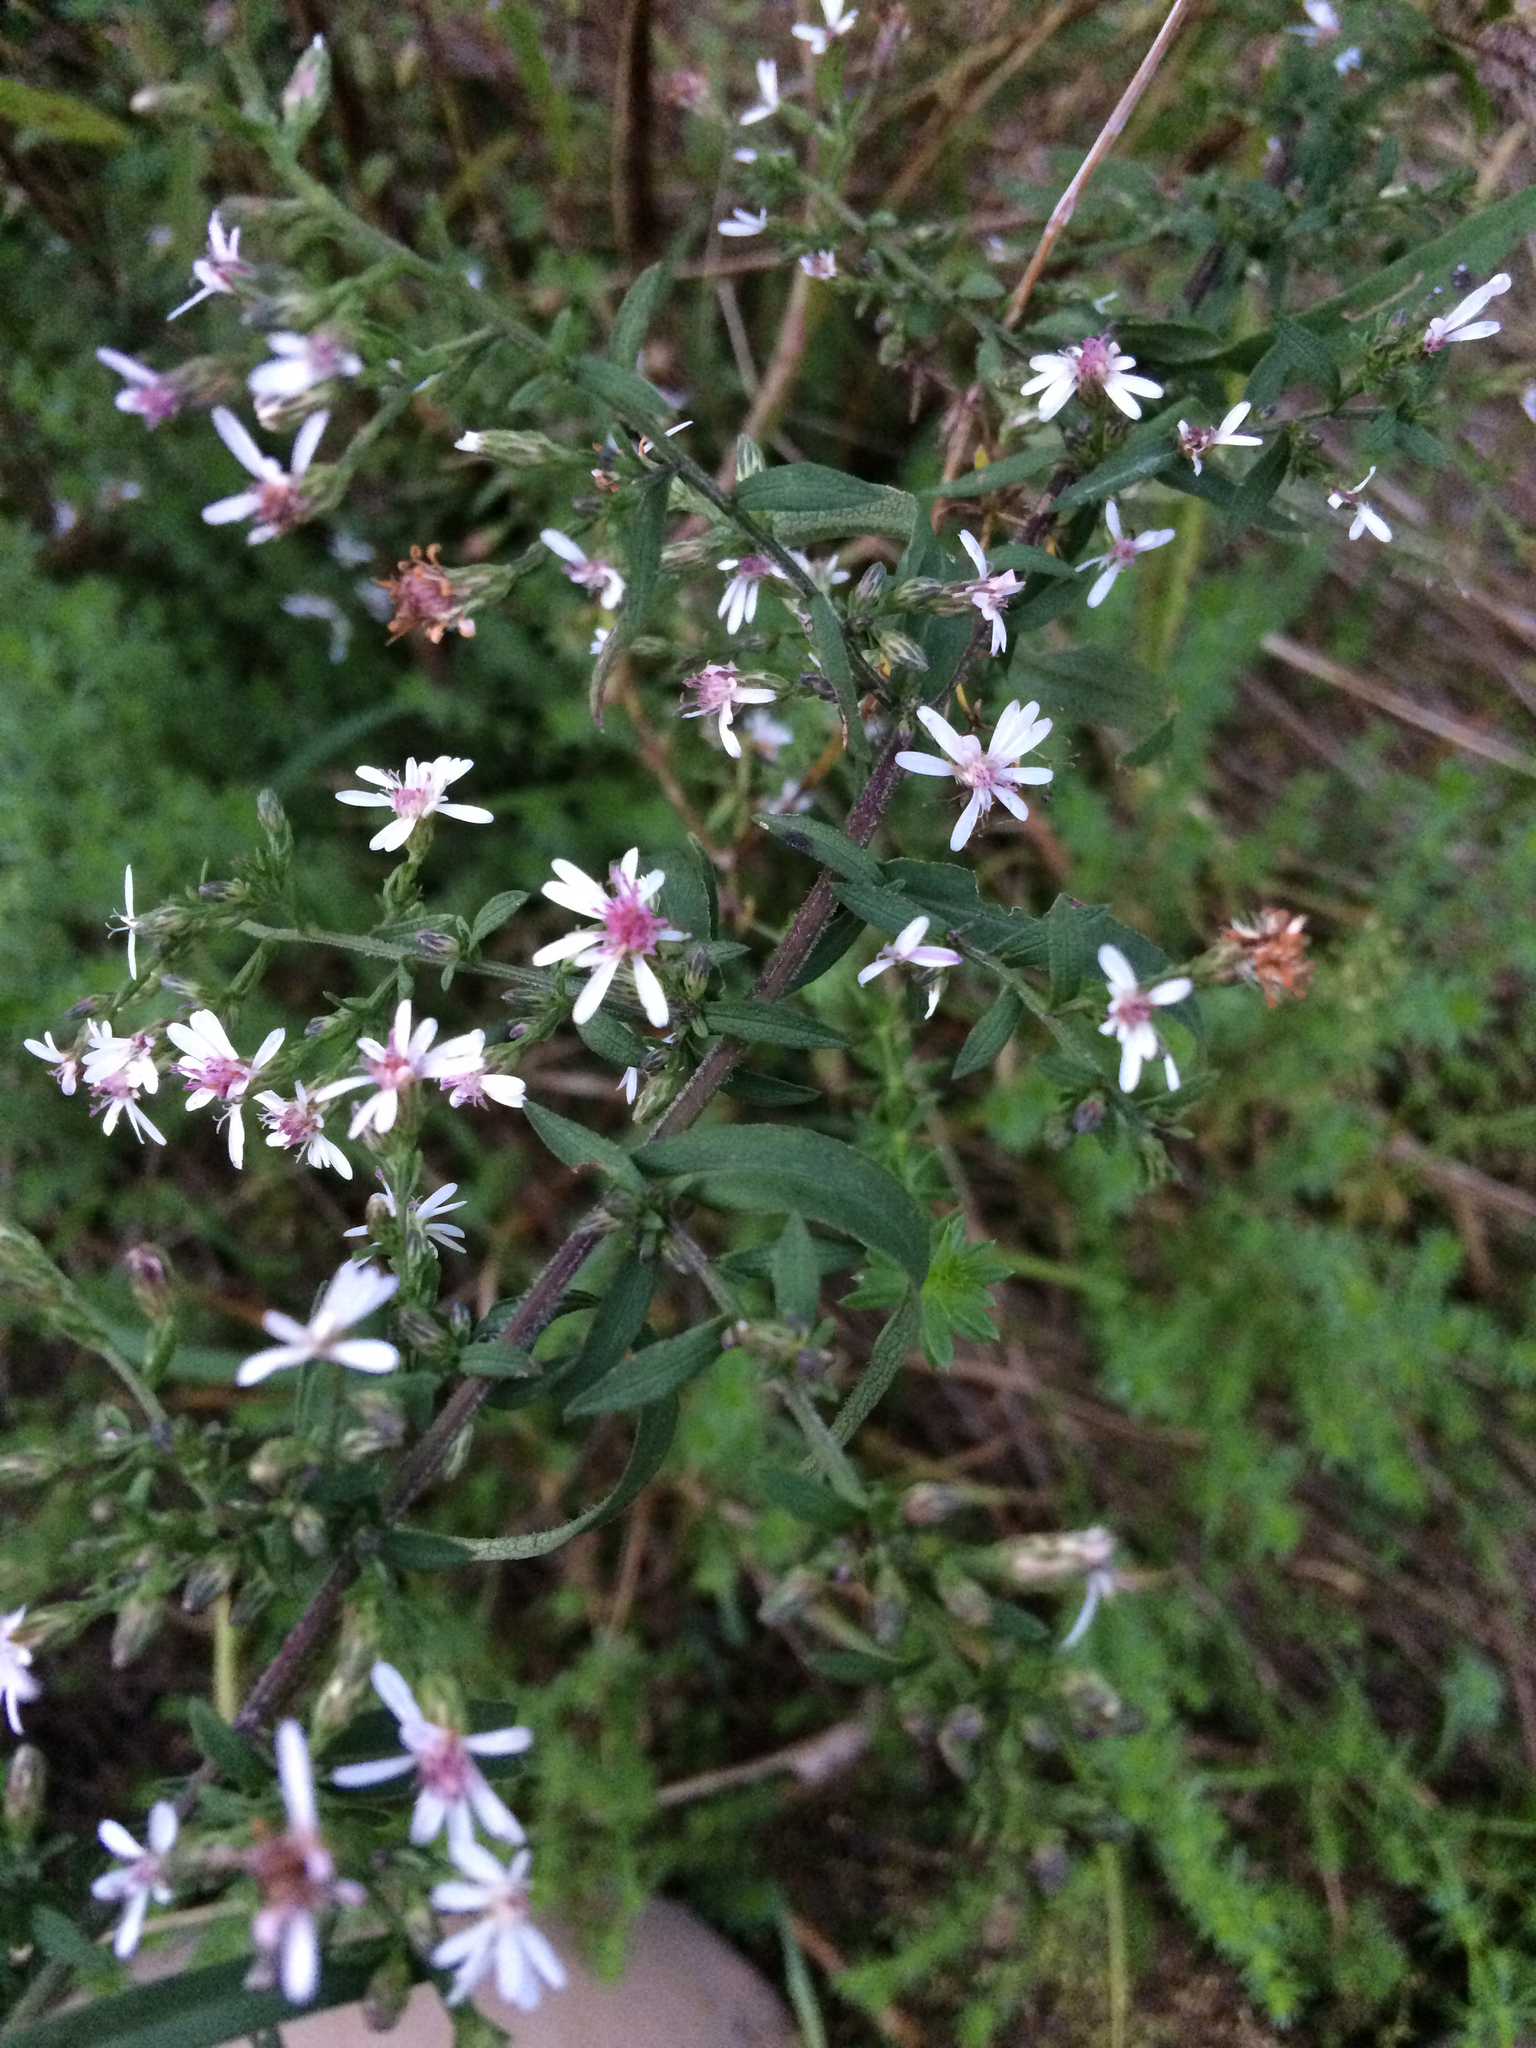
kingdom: Plantae
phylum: Tracheophyta
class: Magnoliopsida
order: Asterales
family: Asteraceae
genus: Symphyotrichum
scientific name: Symphyotrichum lateriflorum
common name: Calico aster
